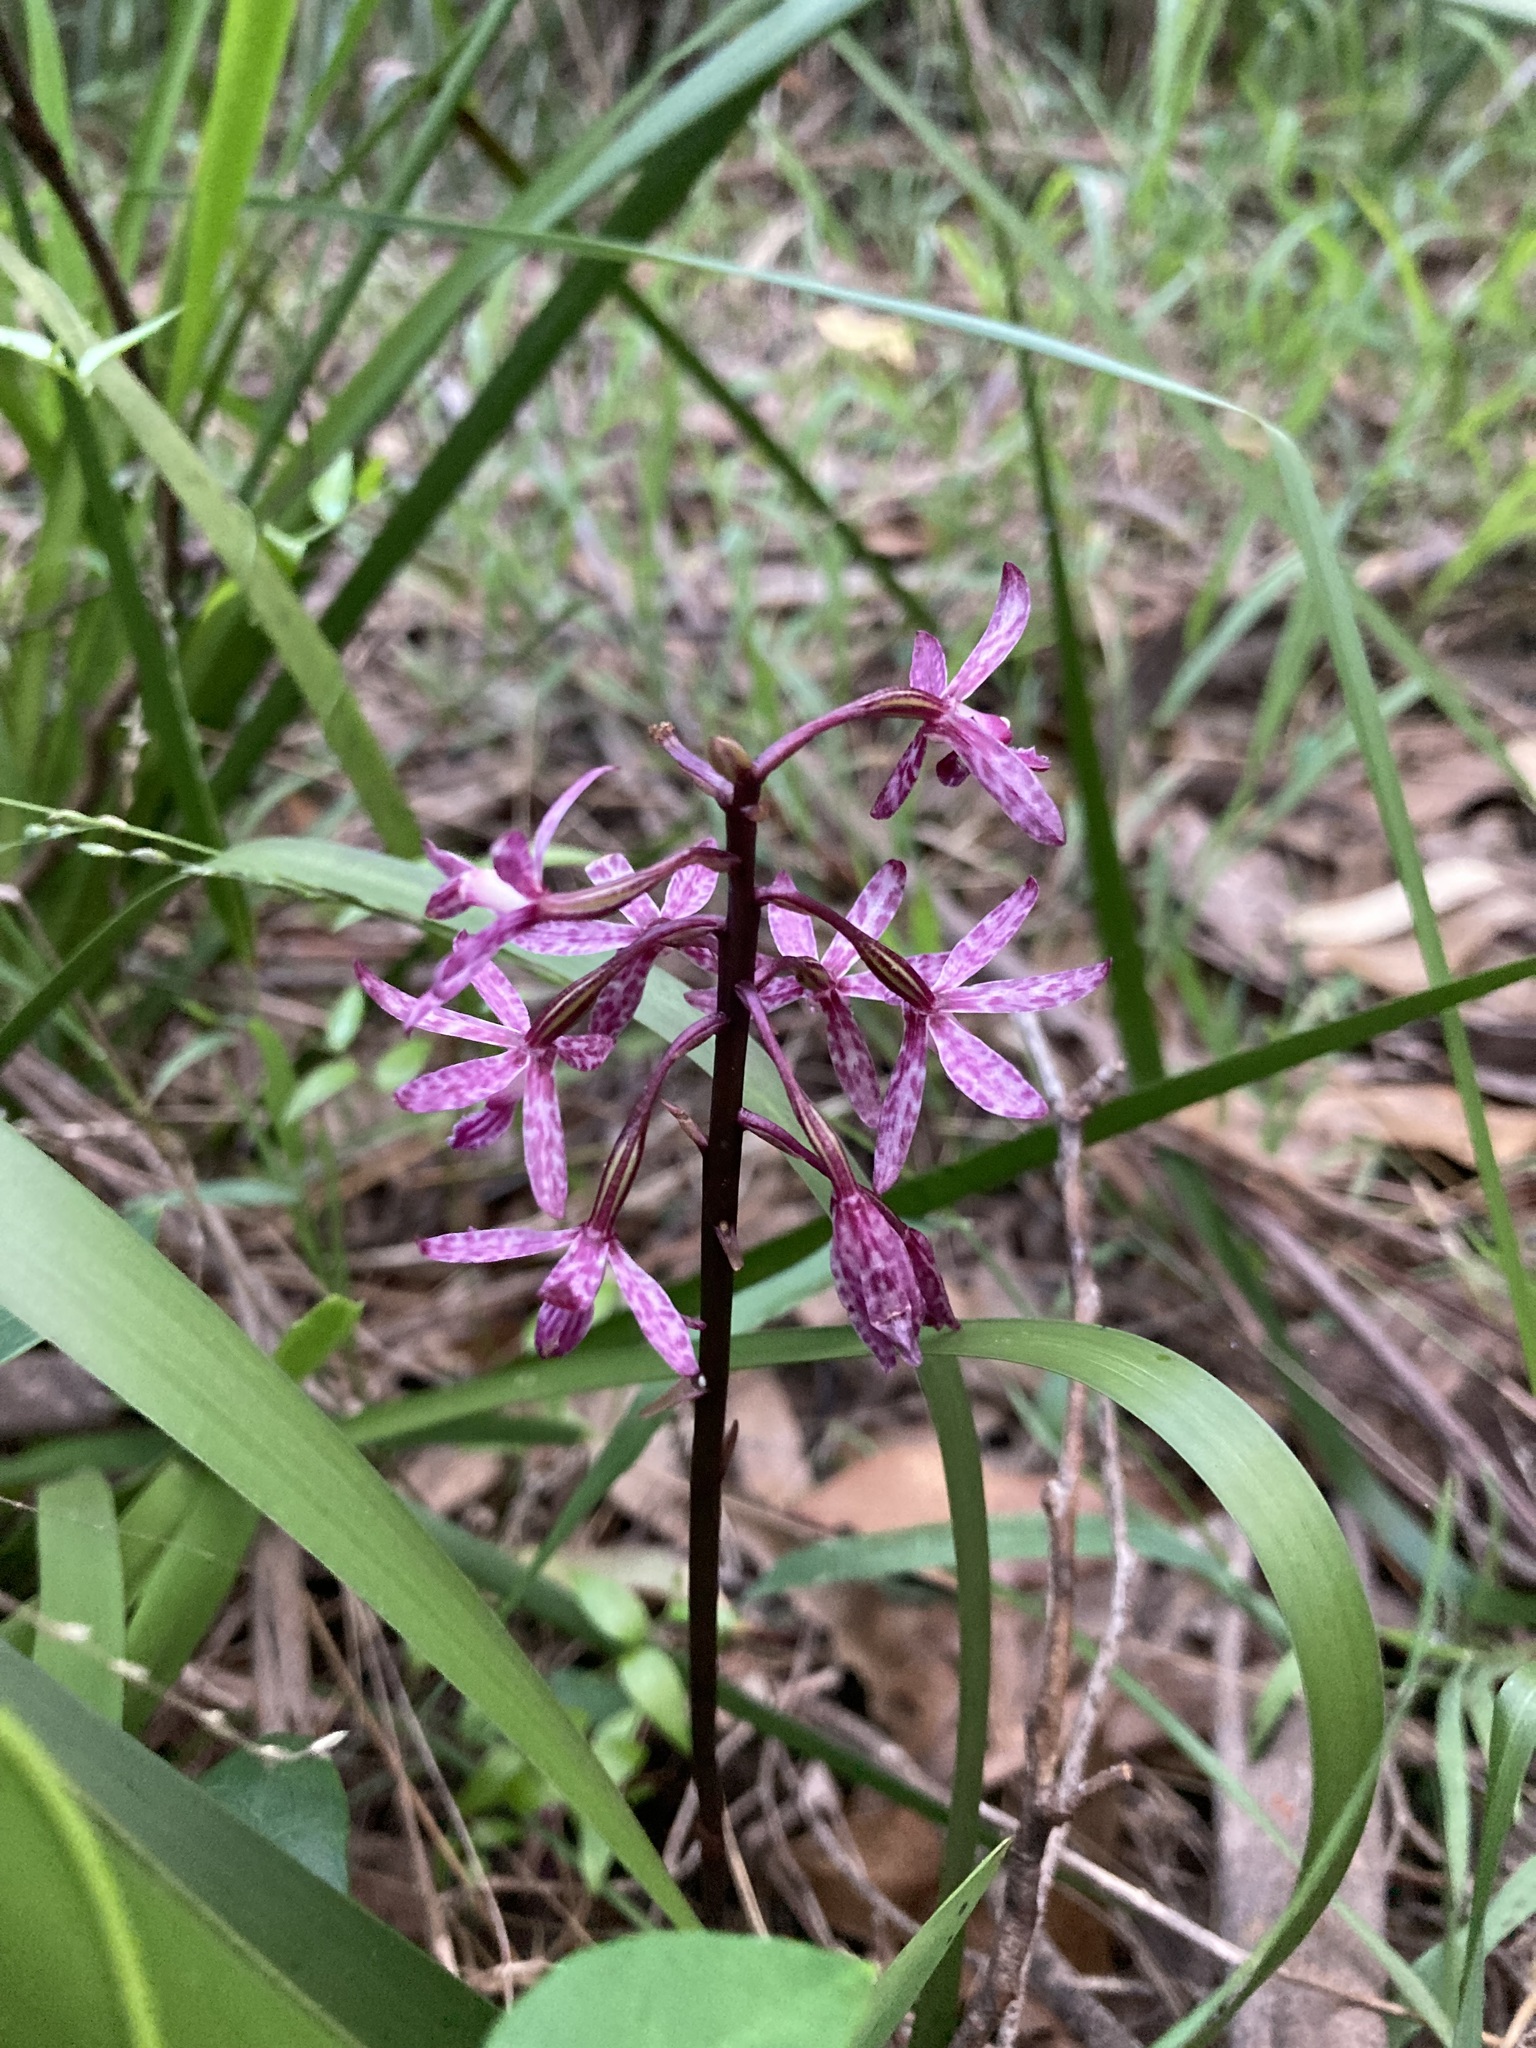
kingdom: Plantae
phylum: Tracheophyta
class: Liliopsida
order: Asparagales
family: Orchidaceae
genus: Dipodium
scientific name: Dipodium squamatum
